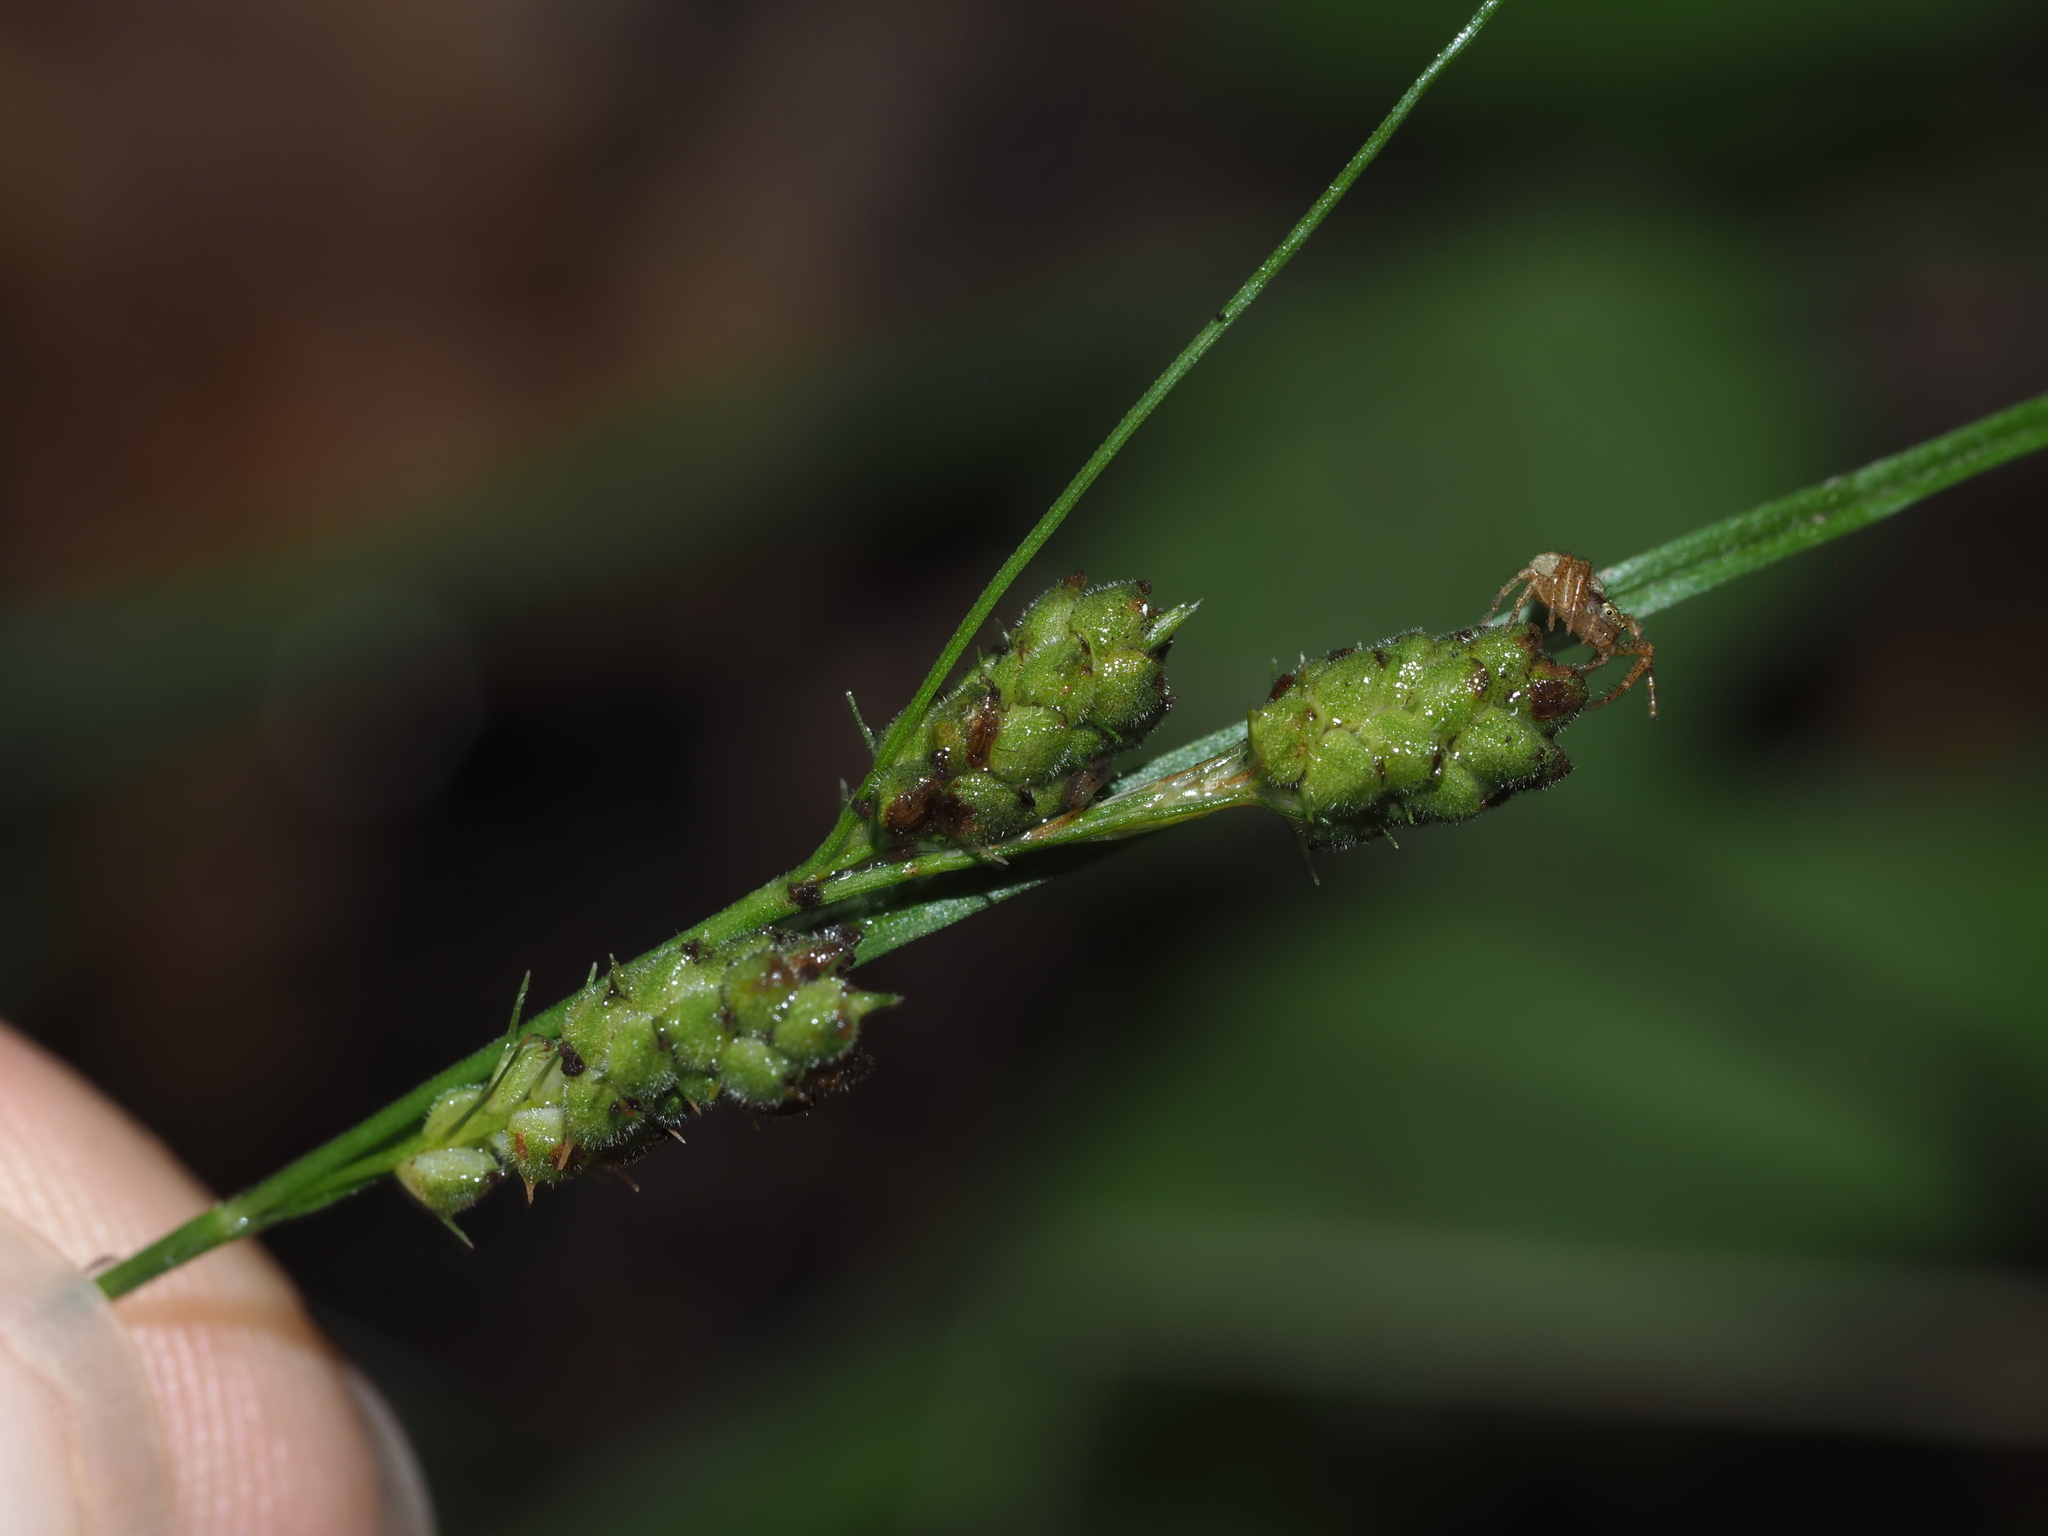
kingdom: Plantae
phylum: Tracheophyta
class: Liliopsida
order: Poales
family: Cyperaceae
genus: Carex
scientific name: Carex swanii
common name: Downy green sedge
